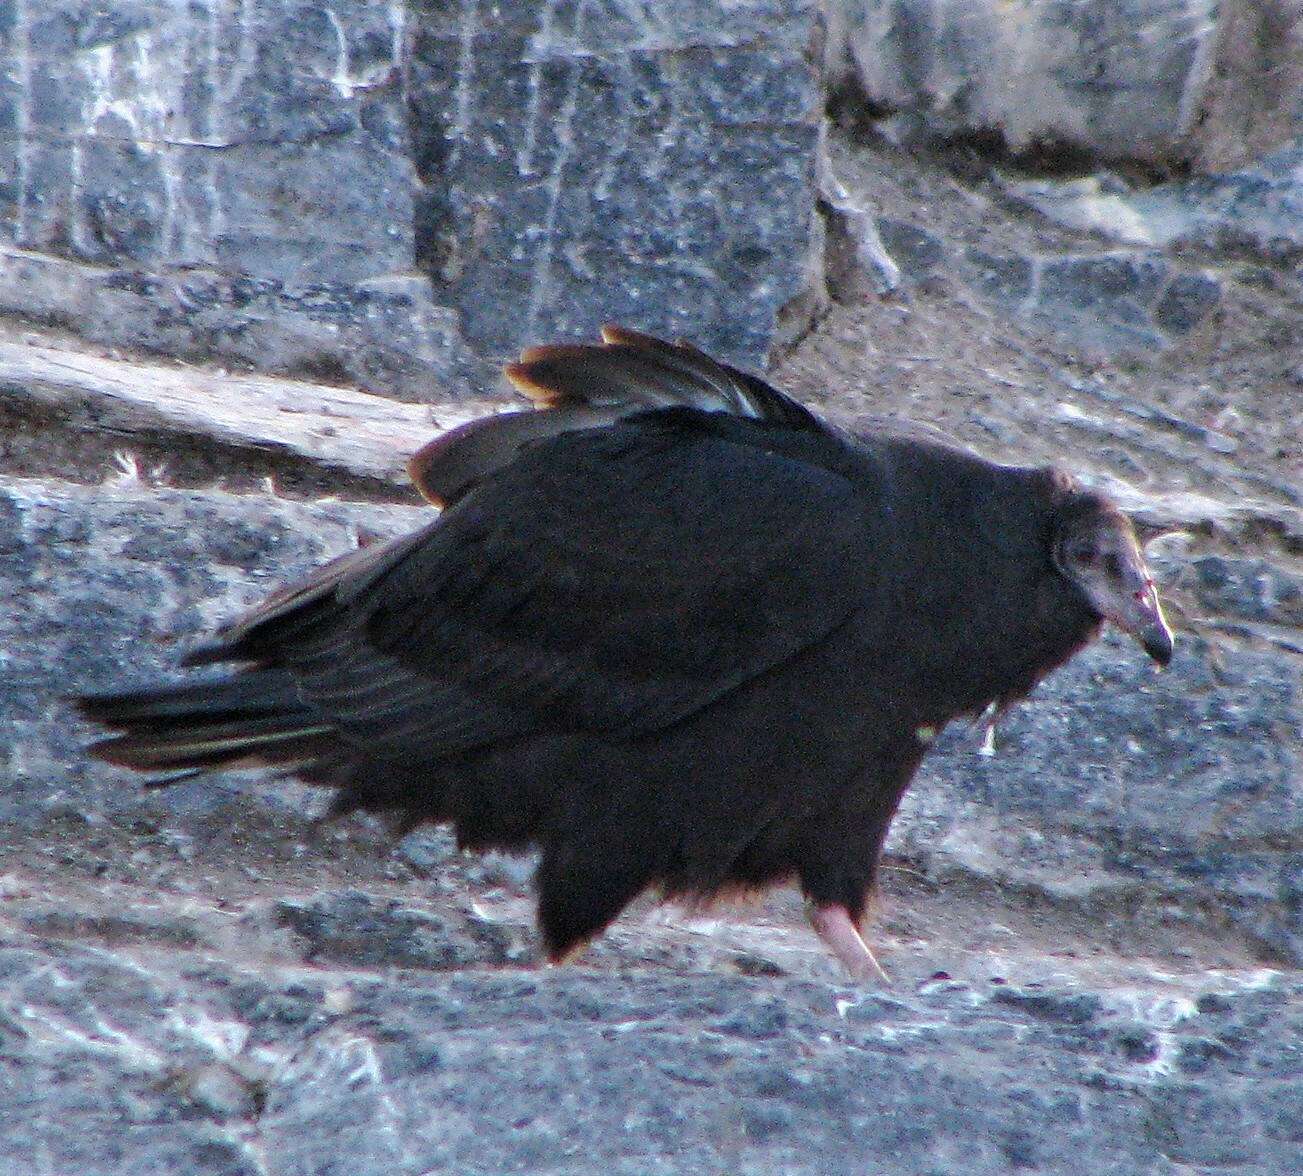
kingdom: Animalia
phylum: Chordata
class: Aves
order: Accipitriformes
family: Cathartidae
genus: Cathartes
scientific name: Cathartes aura
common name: Turkey vulture
